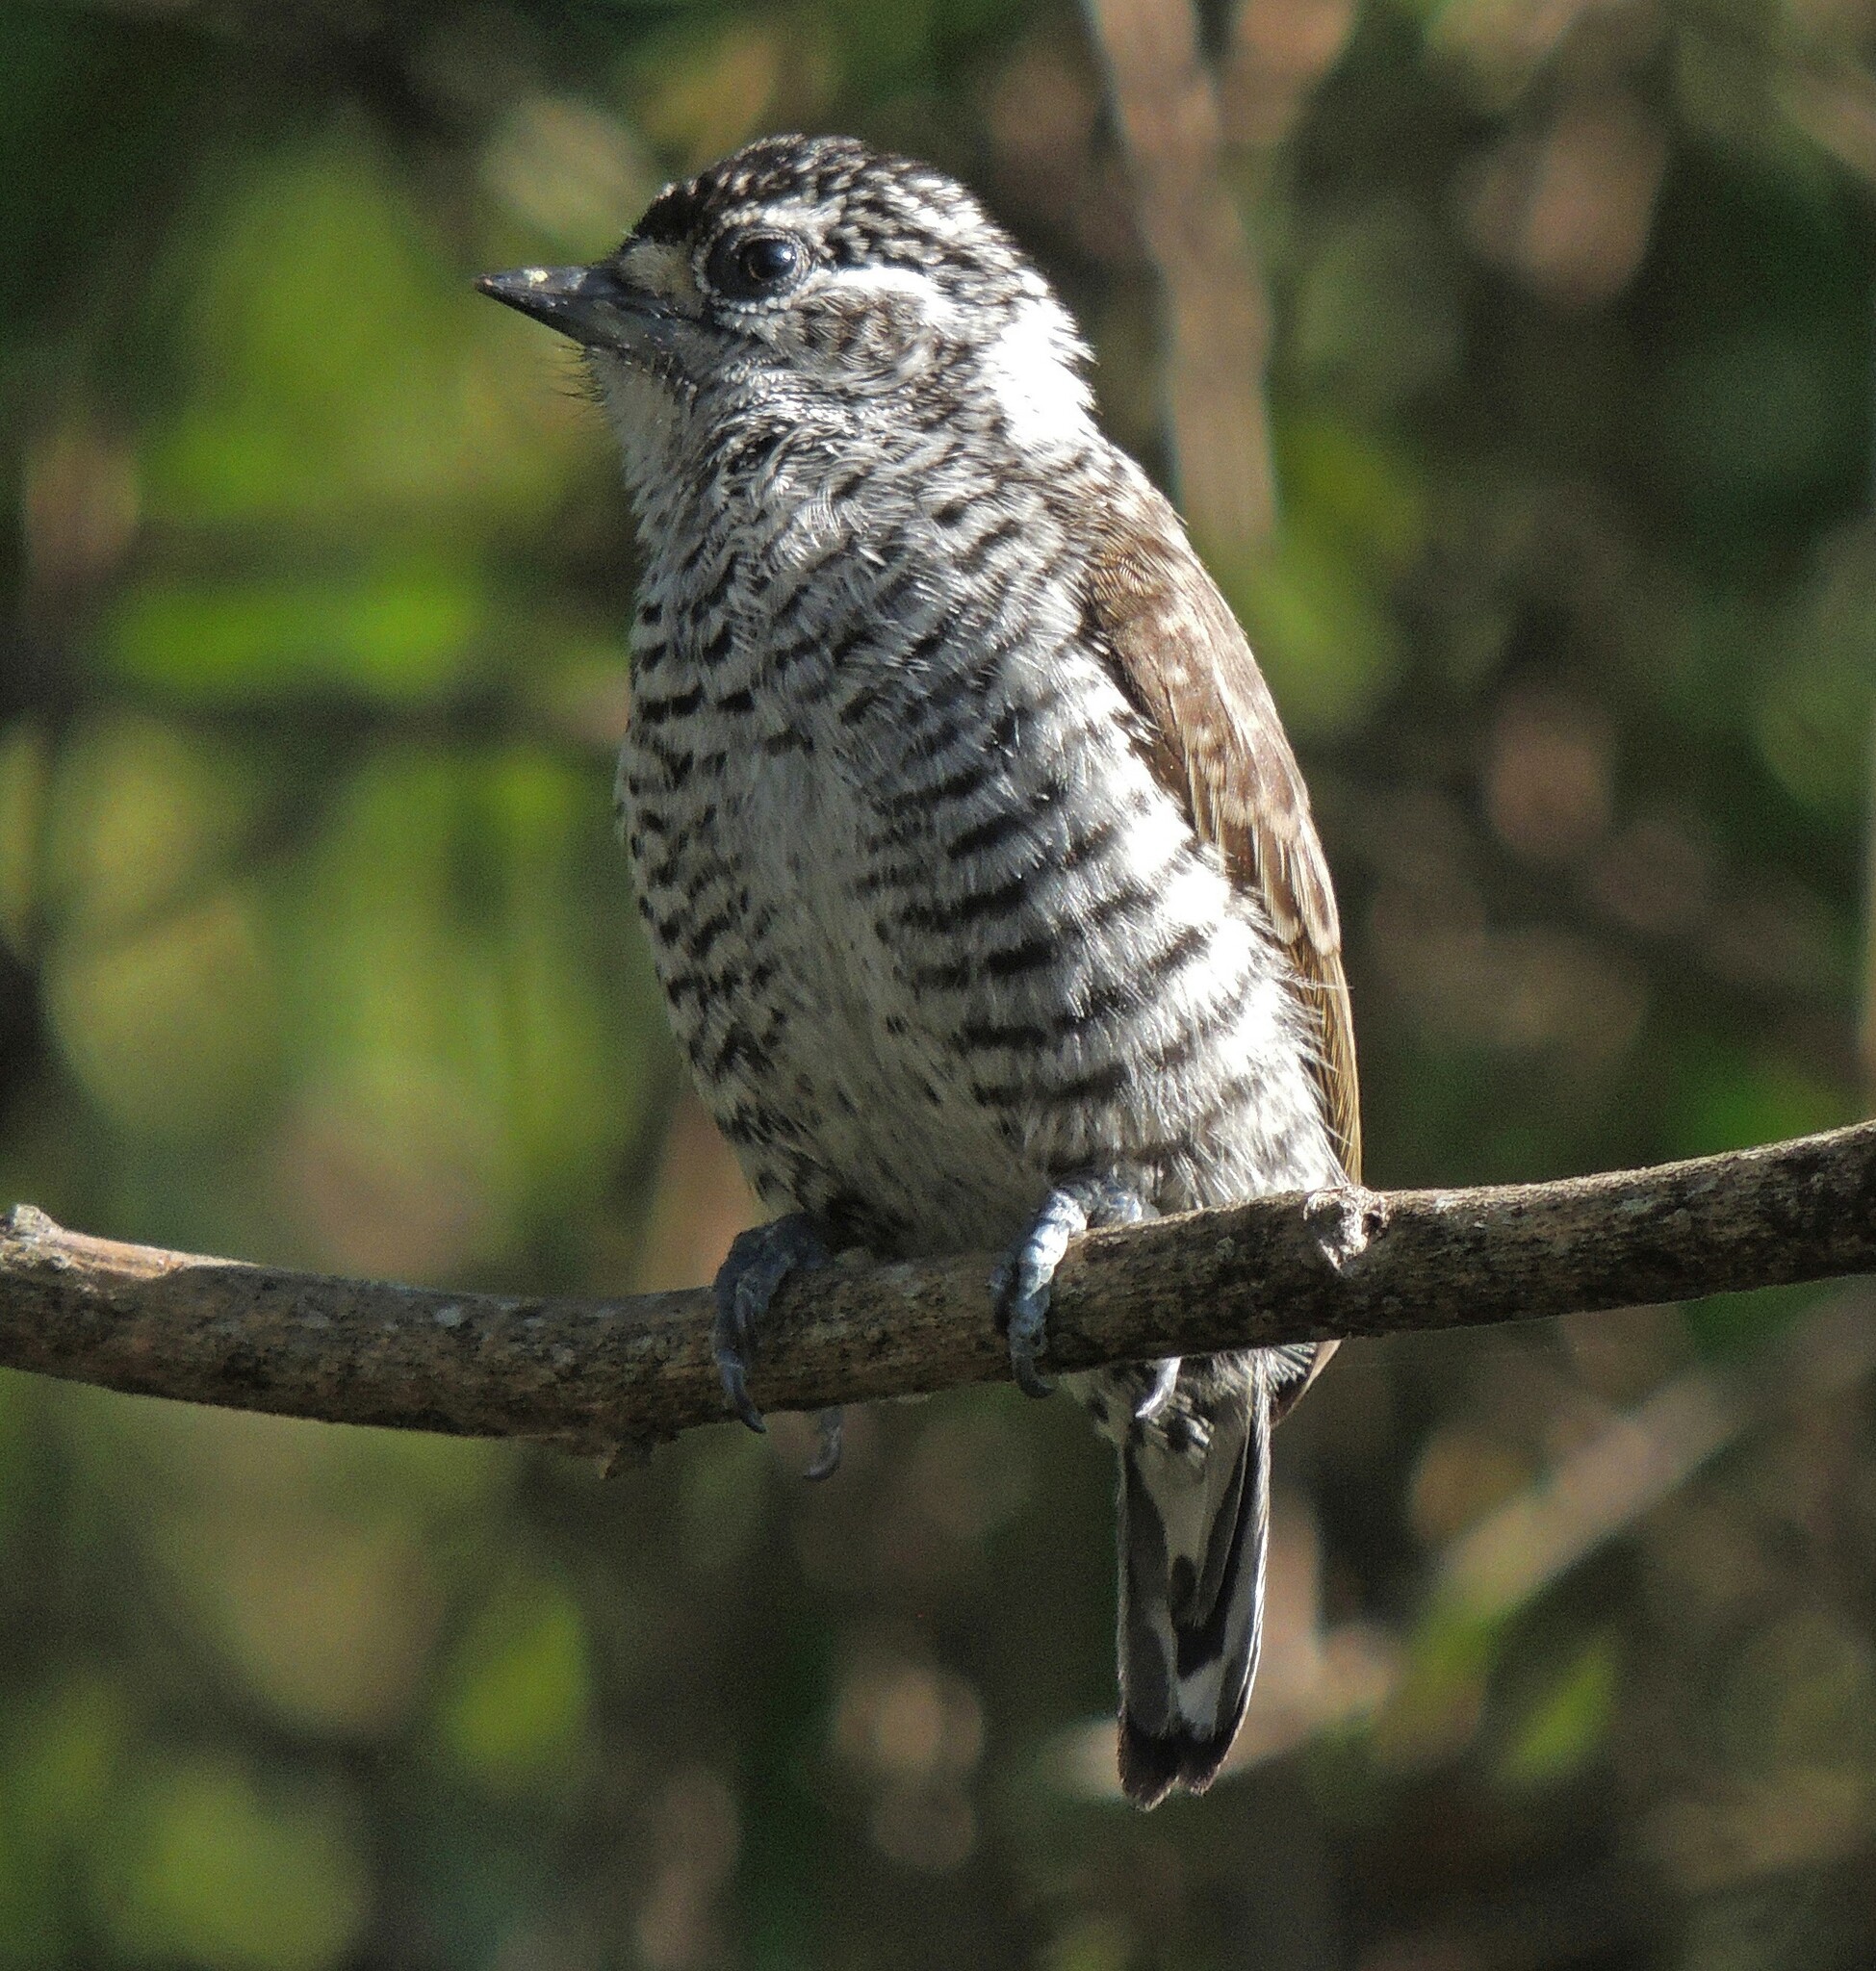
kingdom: Animalia
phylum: Chordata
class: Aves
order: Piciformes
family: Picidae
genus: Picumnus
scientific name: Picumnus cirratus
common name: White-barred piculet
